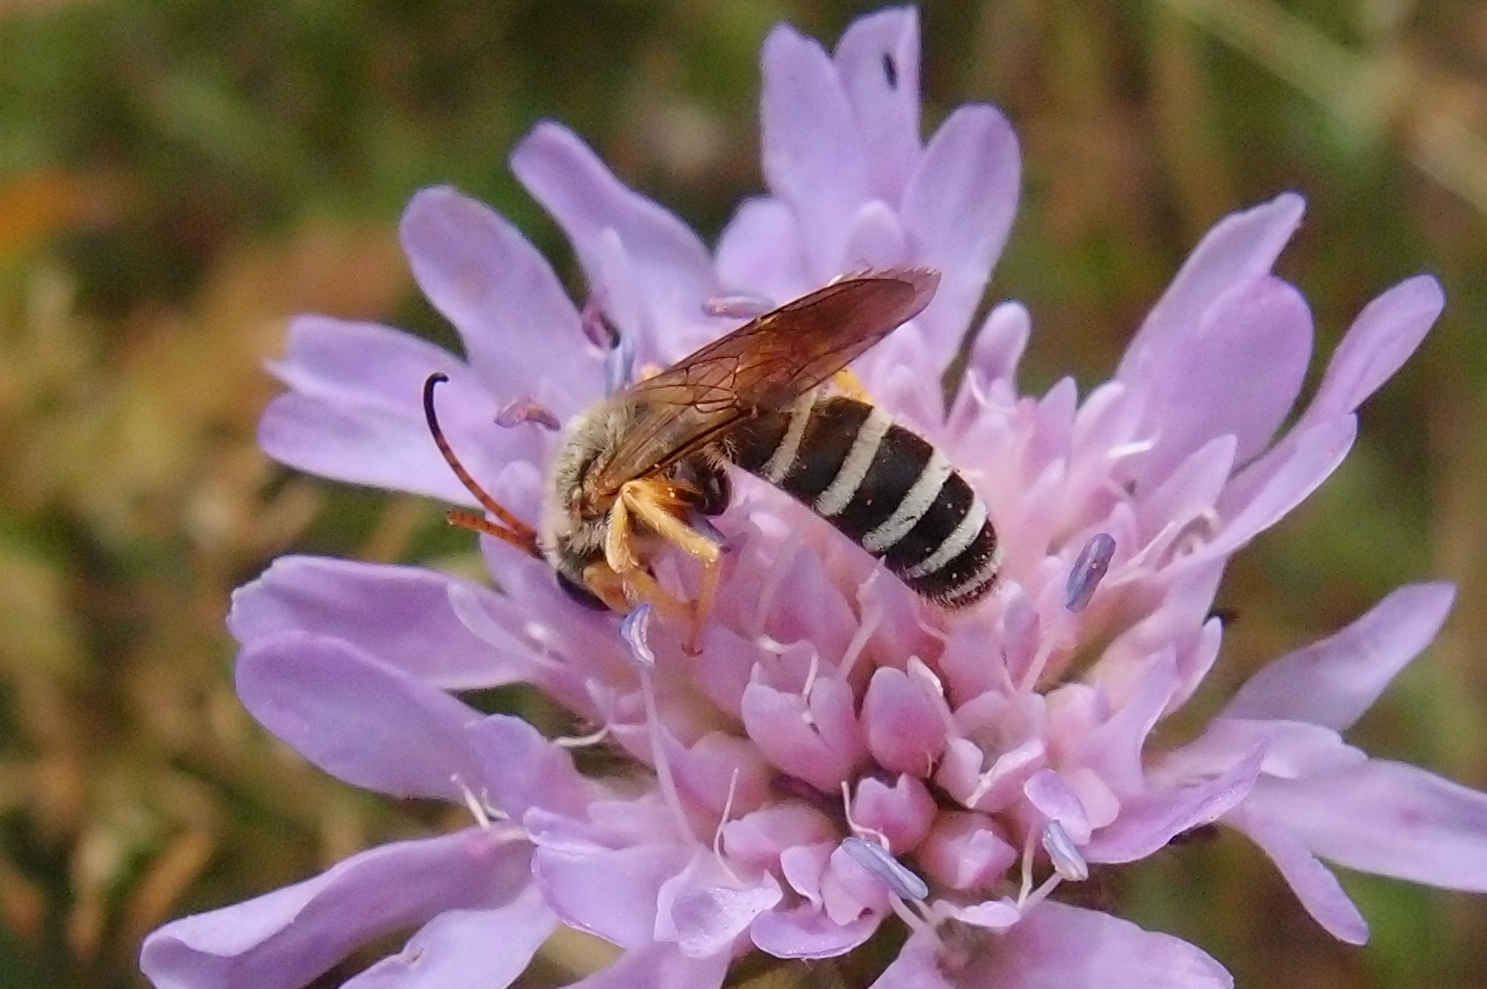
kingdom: Animalia
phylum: Arthropoda
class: Insecta
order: Hymenoptera
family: Halictidae
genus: Halictus
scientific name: Halictus sexcinctus
